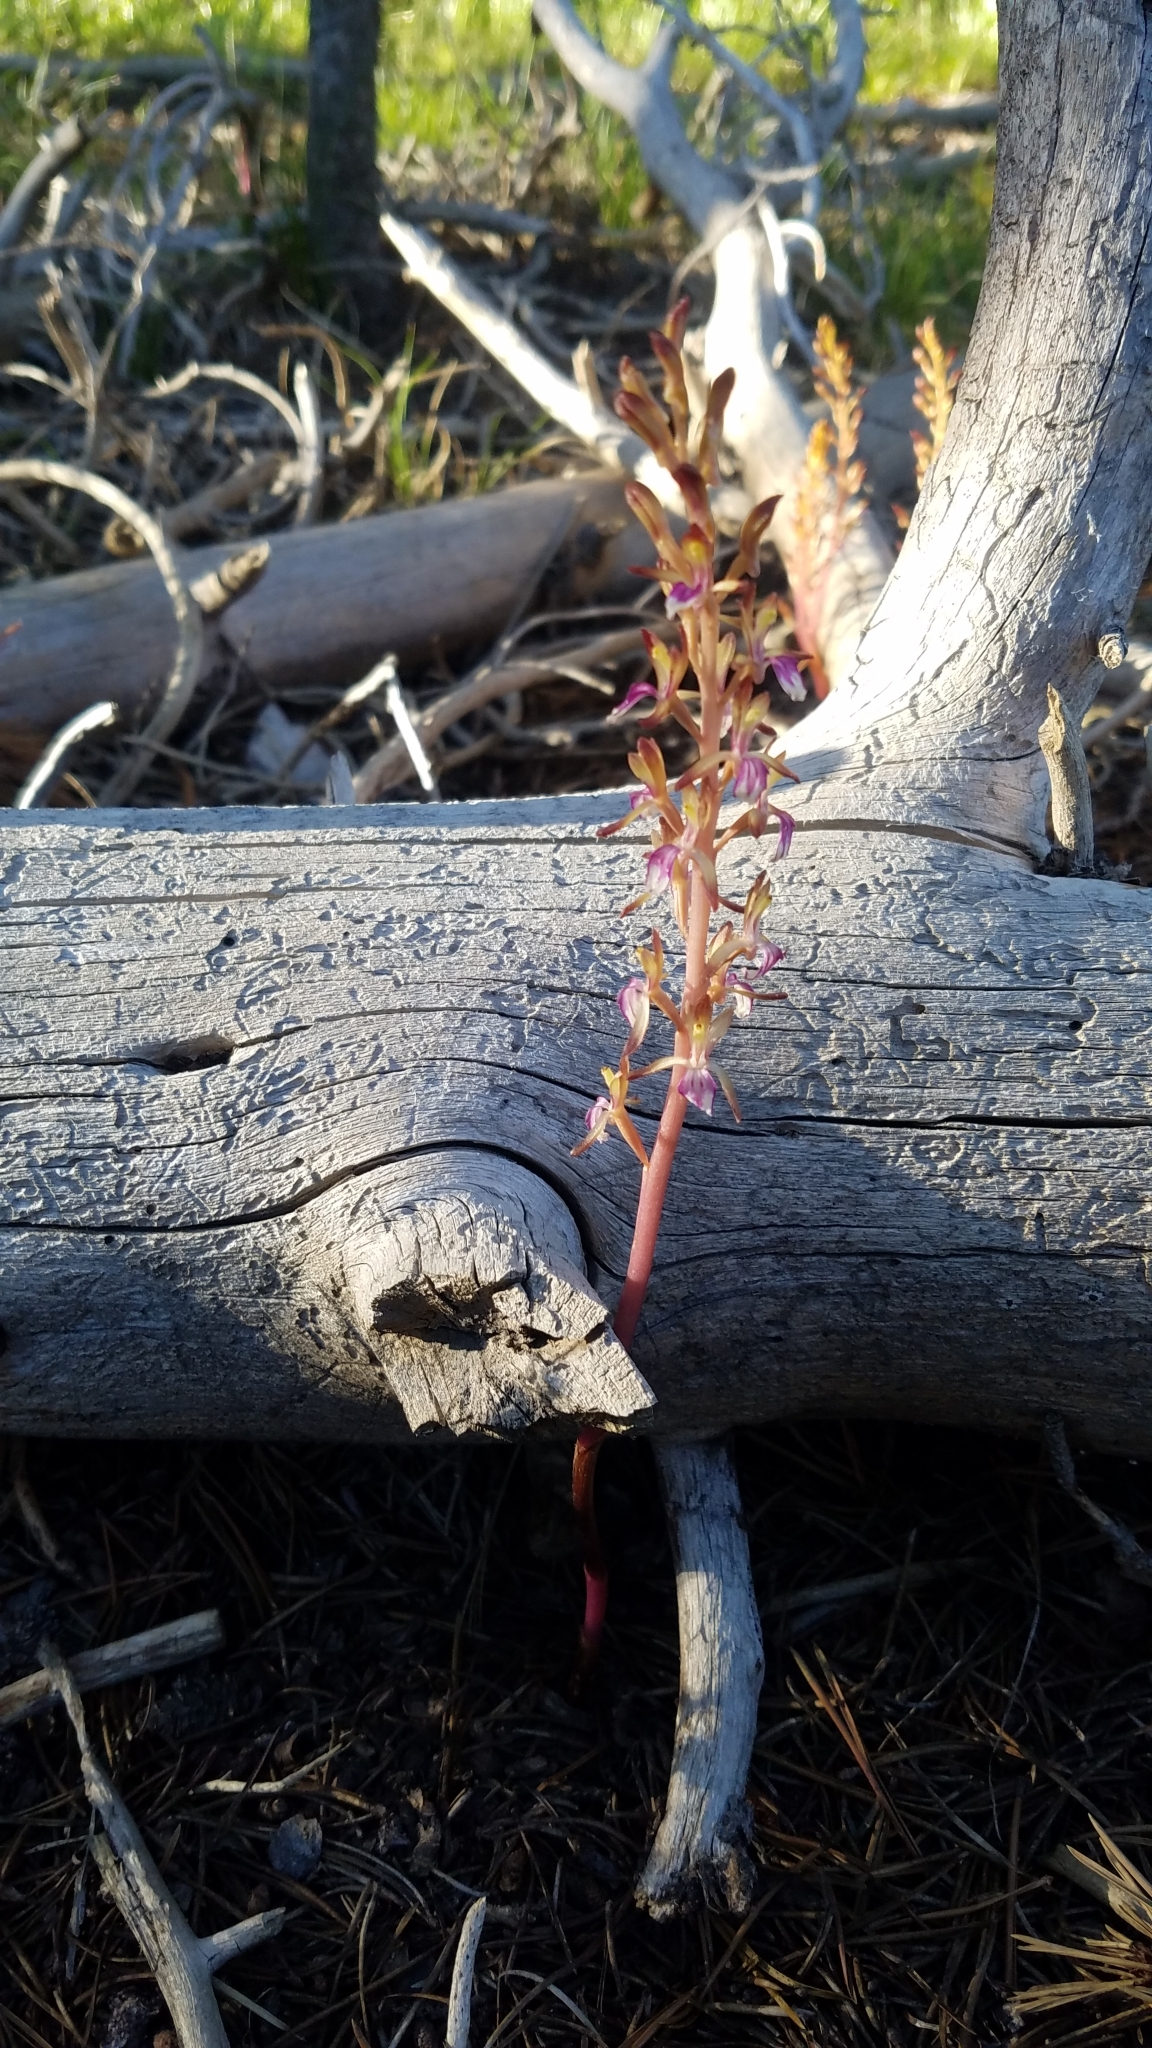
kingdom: Plantae
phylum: Tracheophyta
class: Liliopsida
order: Asparagales
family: Orchidaceae
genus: Corallorhiza
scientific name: Corallorhiza mertensiana
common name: Pacific coralroot
